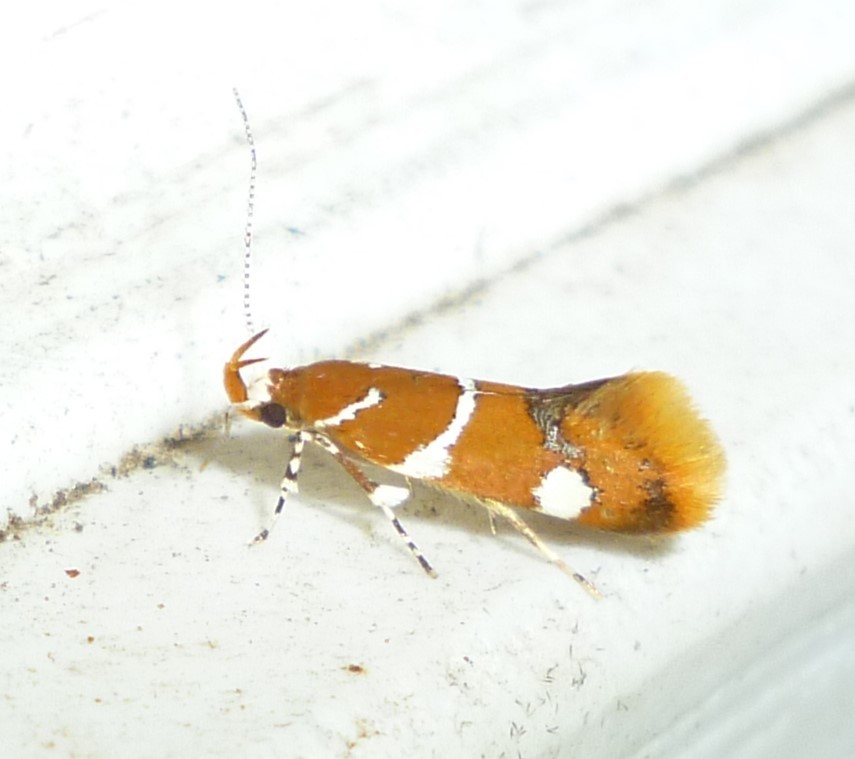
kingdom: Animalia
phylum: Arthropoda
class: Insecta
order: Lepidoptera
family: Oecophoridae
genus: Promalactis
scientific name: Promalactis suzukiella
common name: Moth
